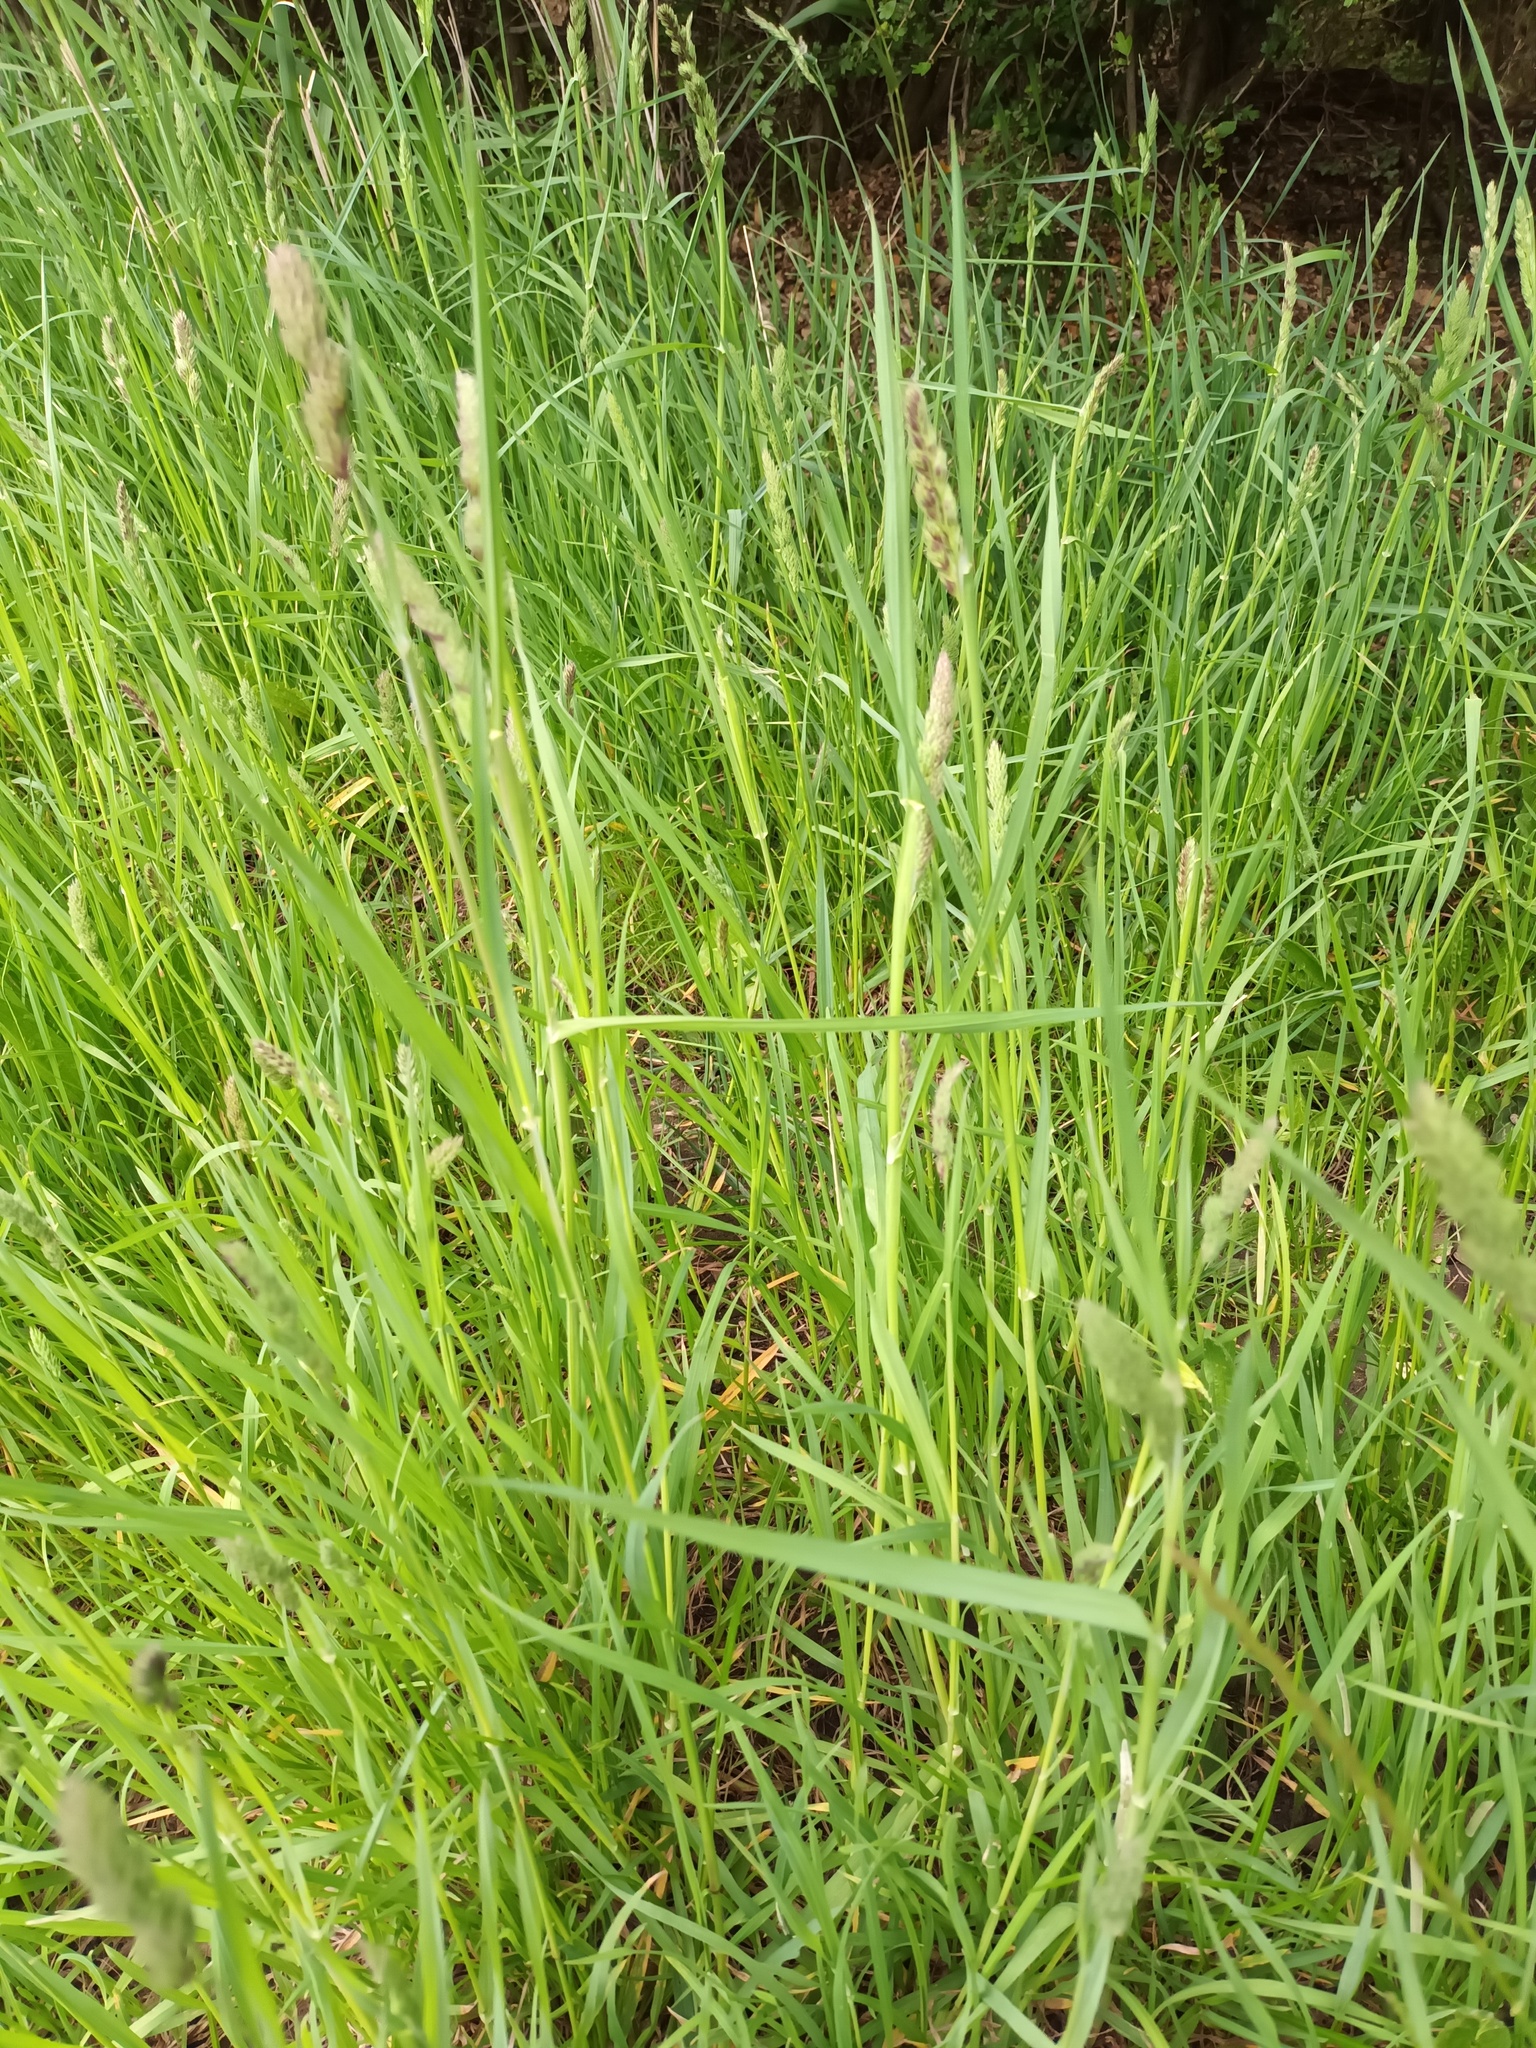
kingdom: Plantae
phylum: Tracheophyta
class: Liliopsida
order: Poales
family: Poaceae
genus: Dactylis
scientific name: Dactylis glomerata
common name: Orchardgrass
